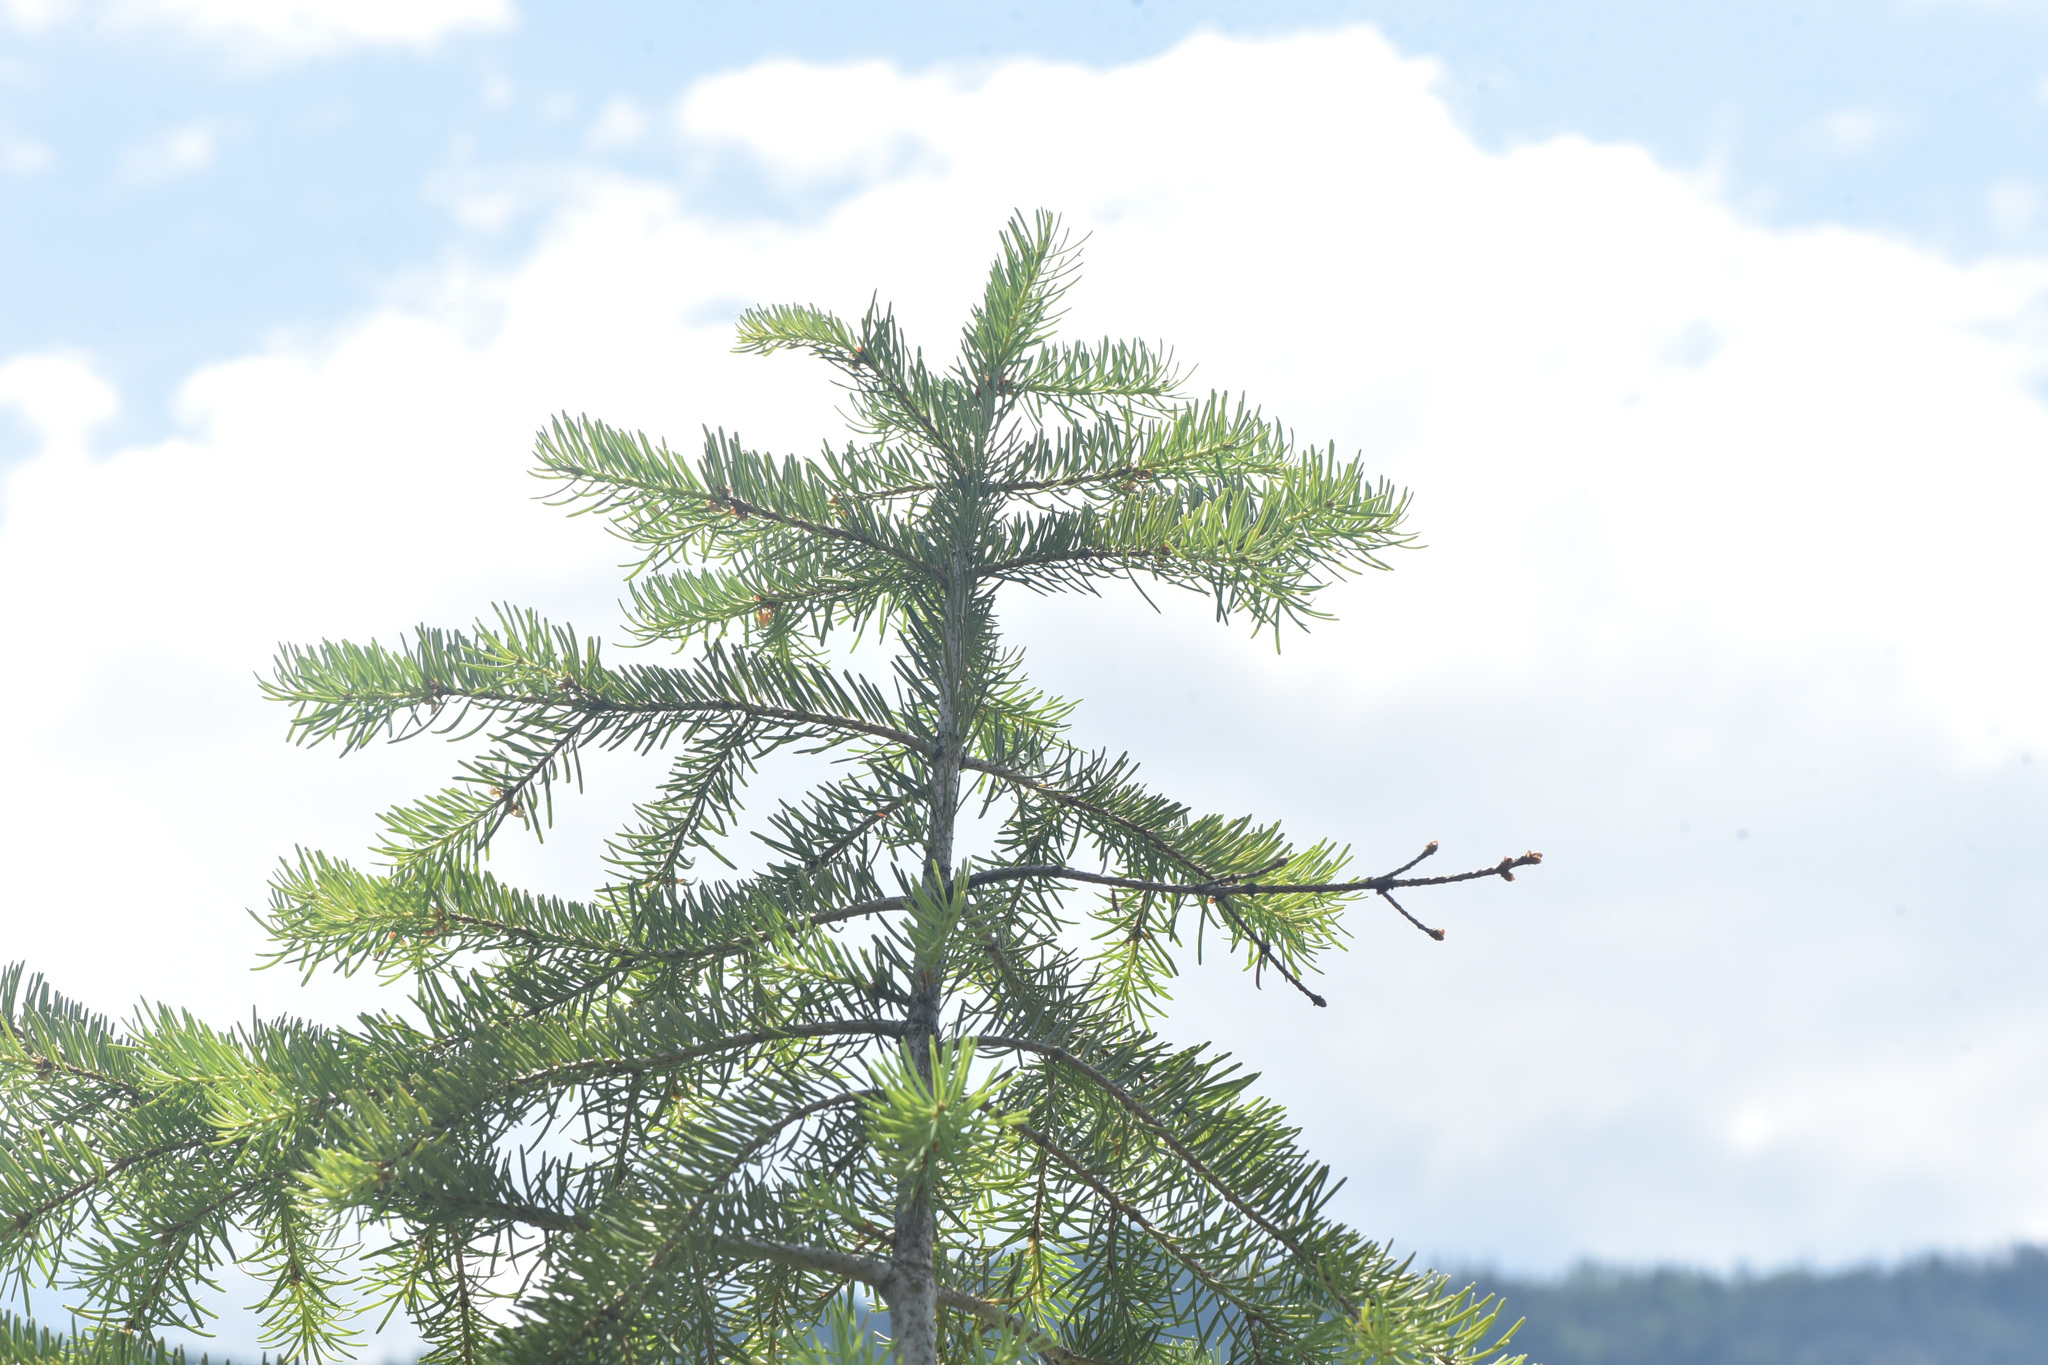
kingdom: Plantae
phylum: Tracheophyta
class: Pinopsida
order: Pinales
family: Pinaceae
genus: Pseudotsuga
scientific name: Pseudotsuga menziesii
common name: Douglas fir
